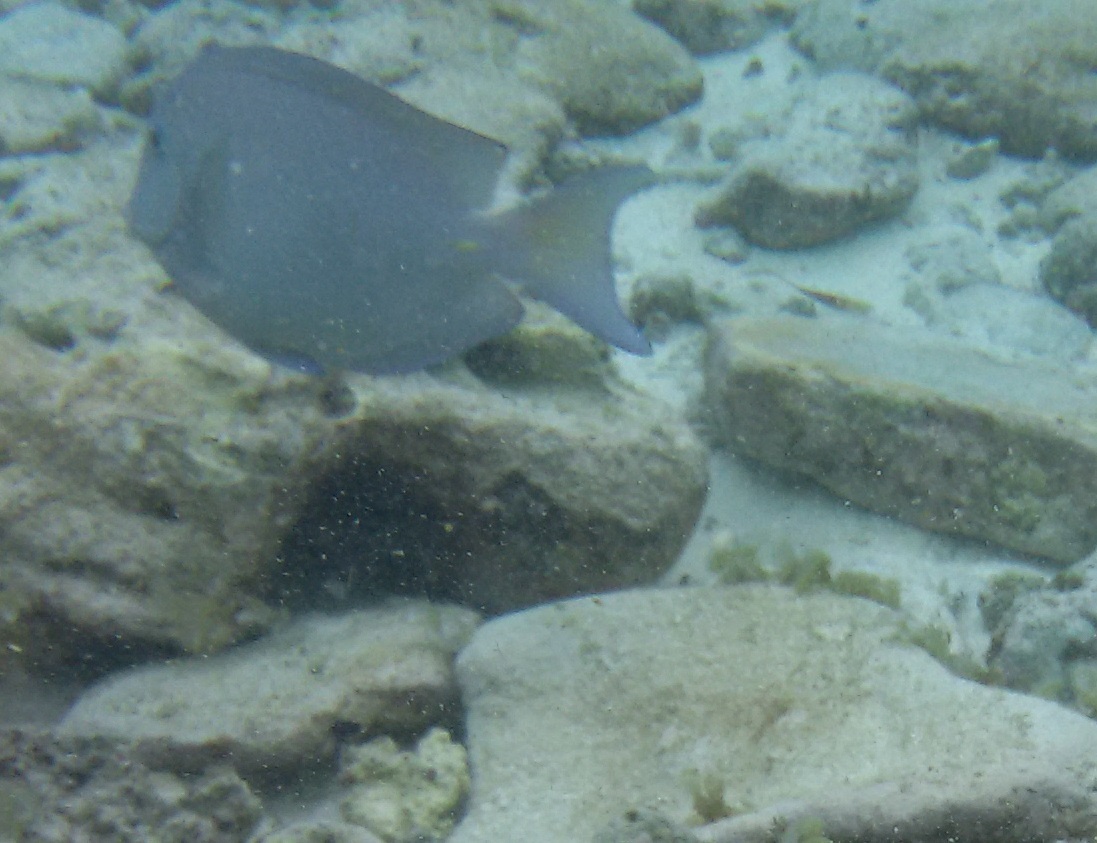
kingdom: Animalia
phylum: Chordata
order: Perciformes
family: Acanthuridae
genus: Acanthurus
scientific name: Acanthurus coeruleus
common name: Blue tang
